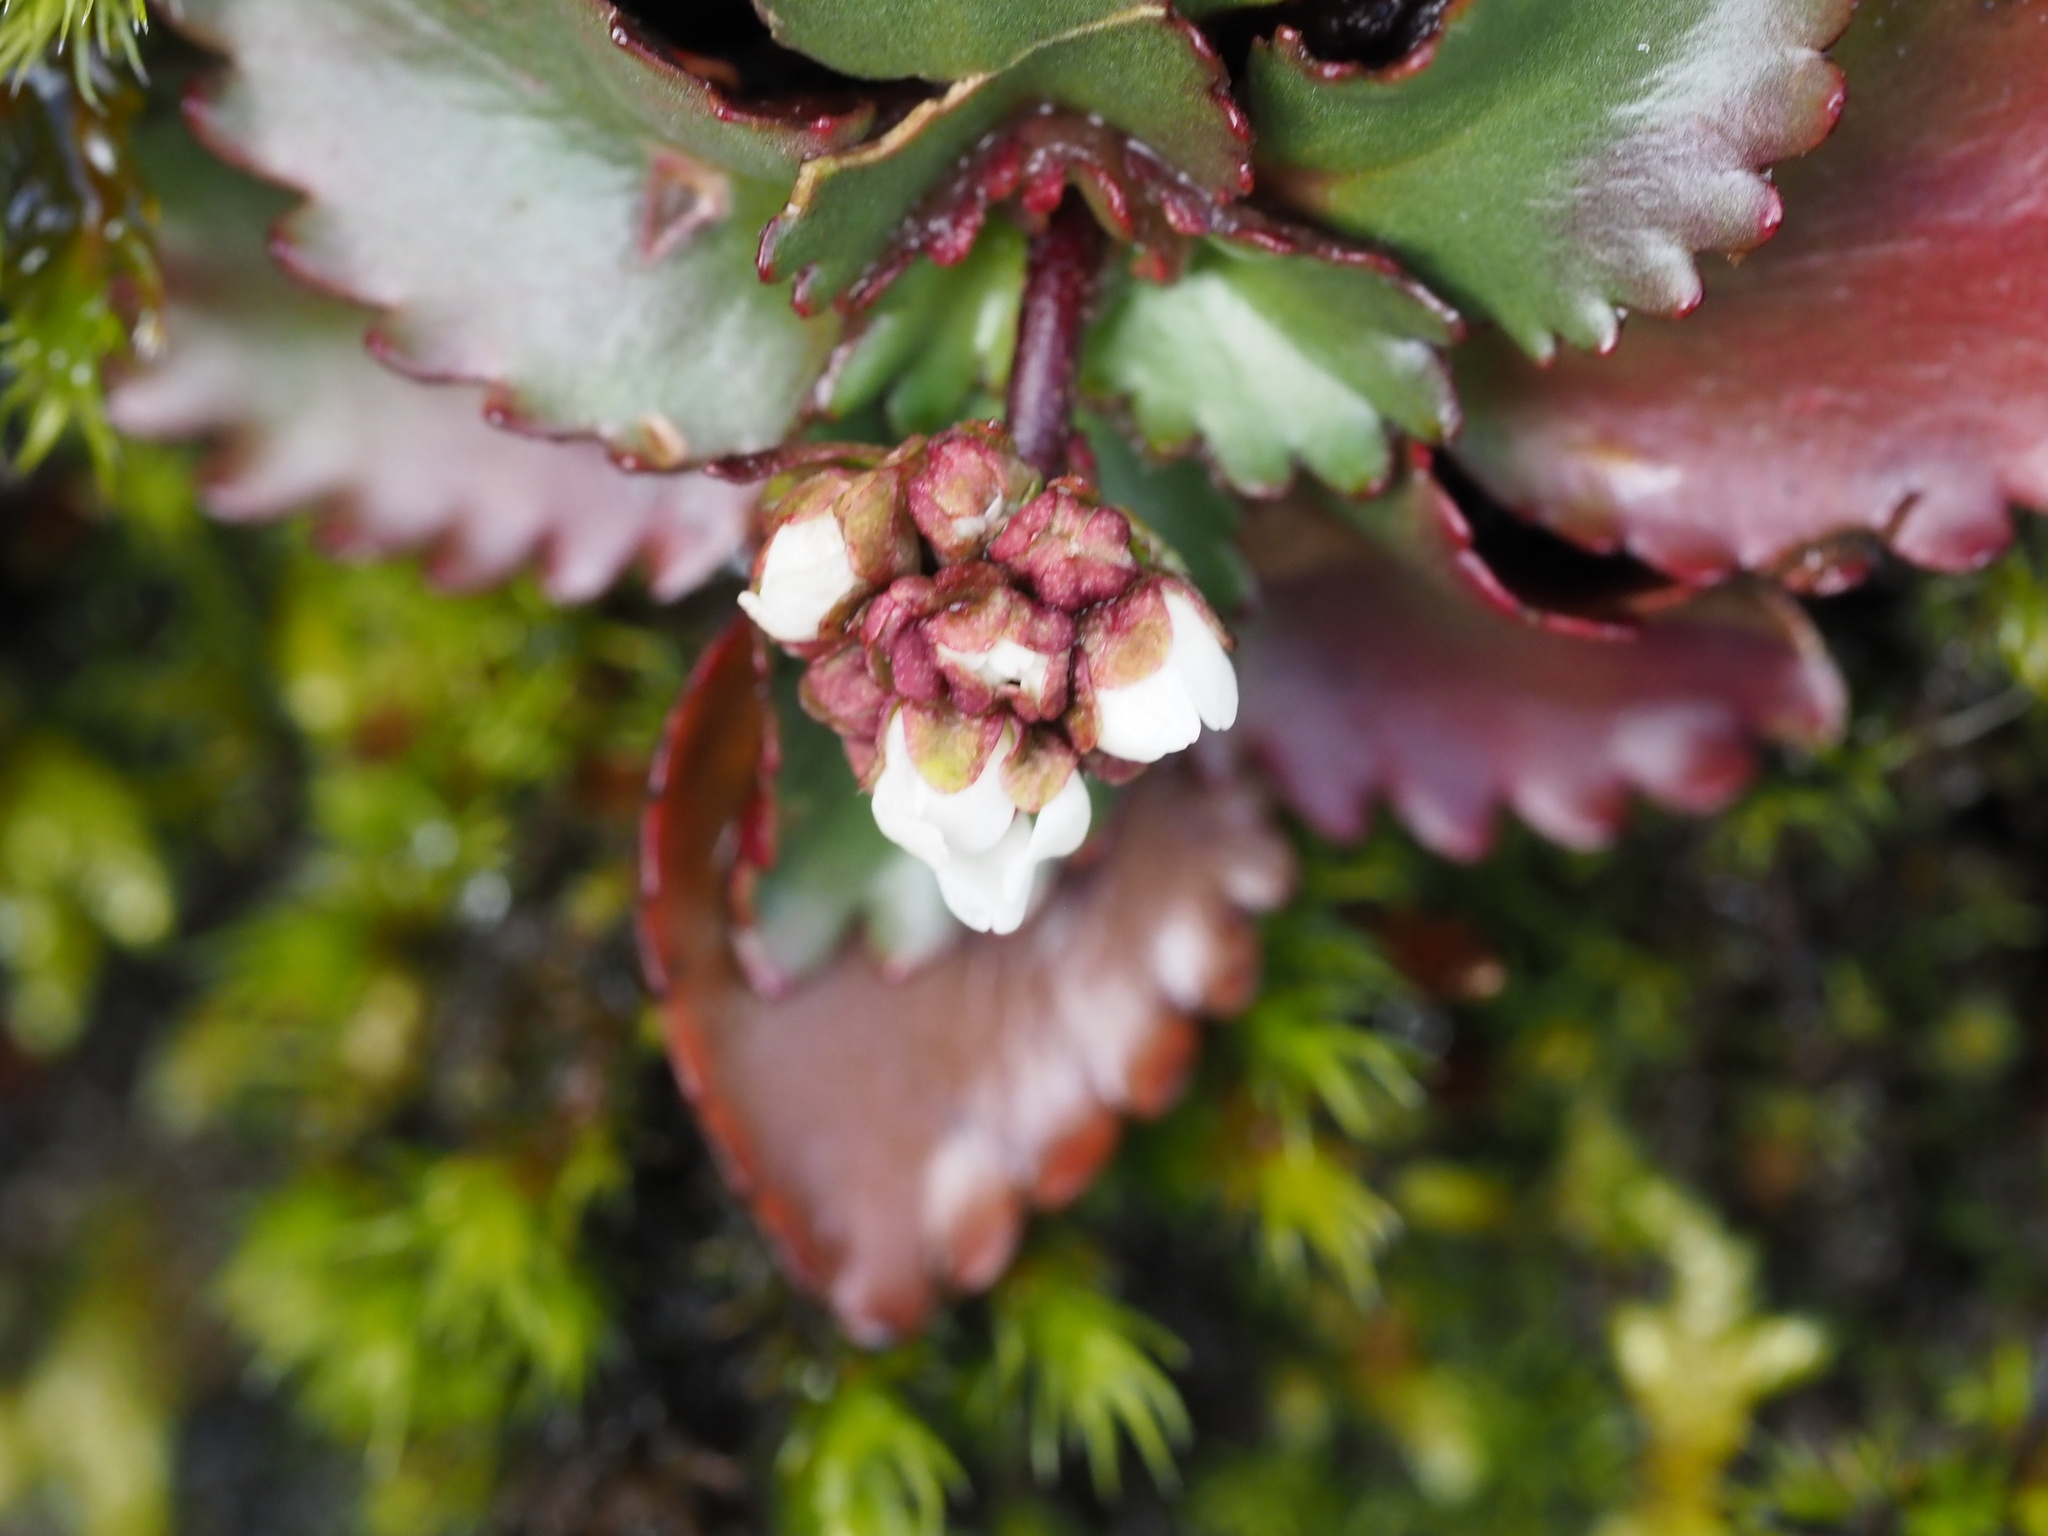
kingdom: Plantae
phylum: Tracheophyta
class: Magnoliopsida
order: Saxifragales
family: Saxifragaceae
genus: Micranthes
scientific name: Micranthes rufidula
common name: Rustyhair saxifrage
